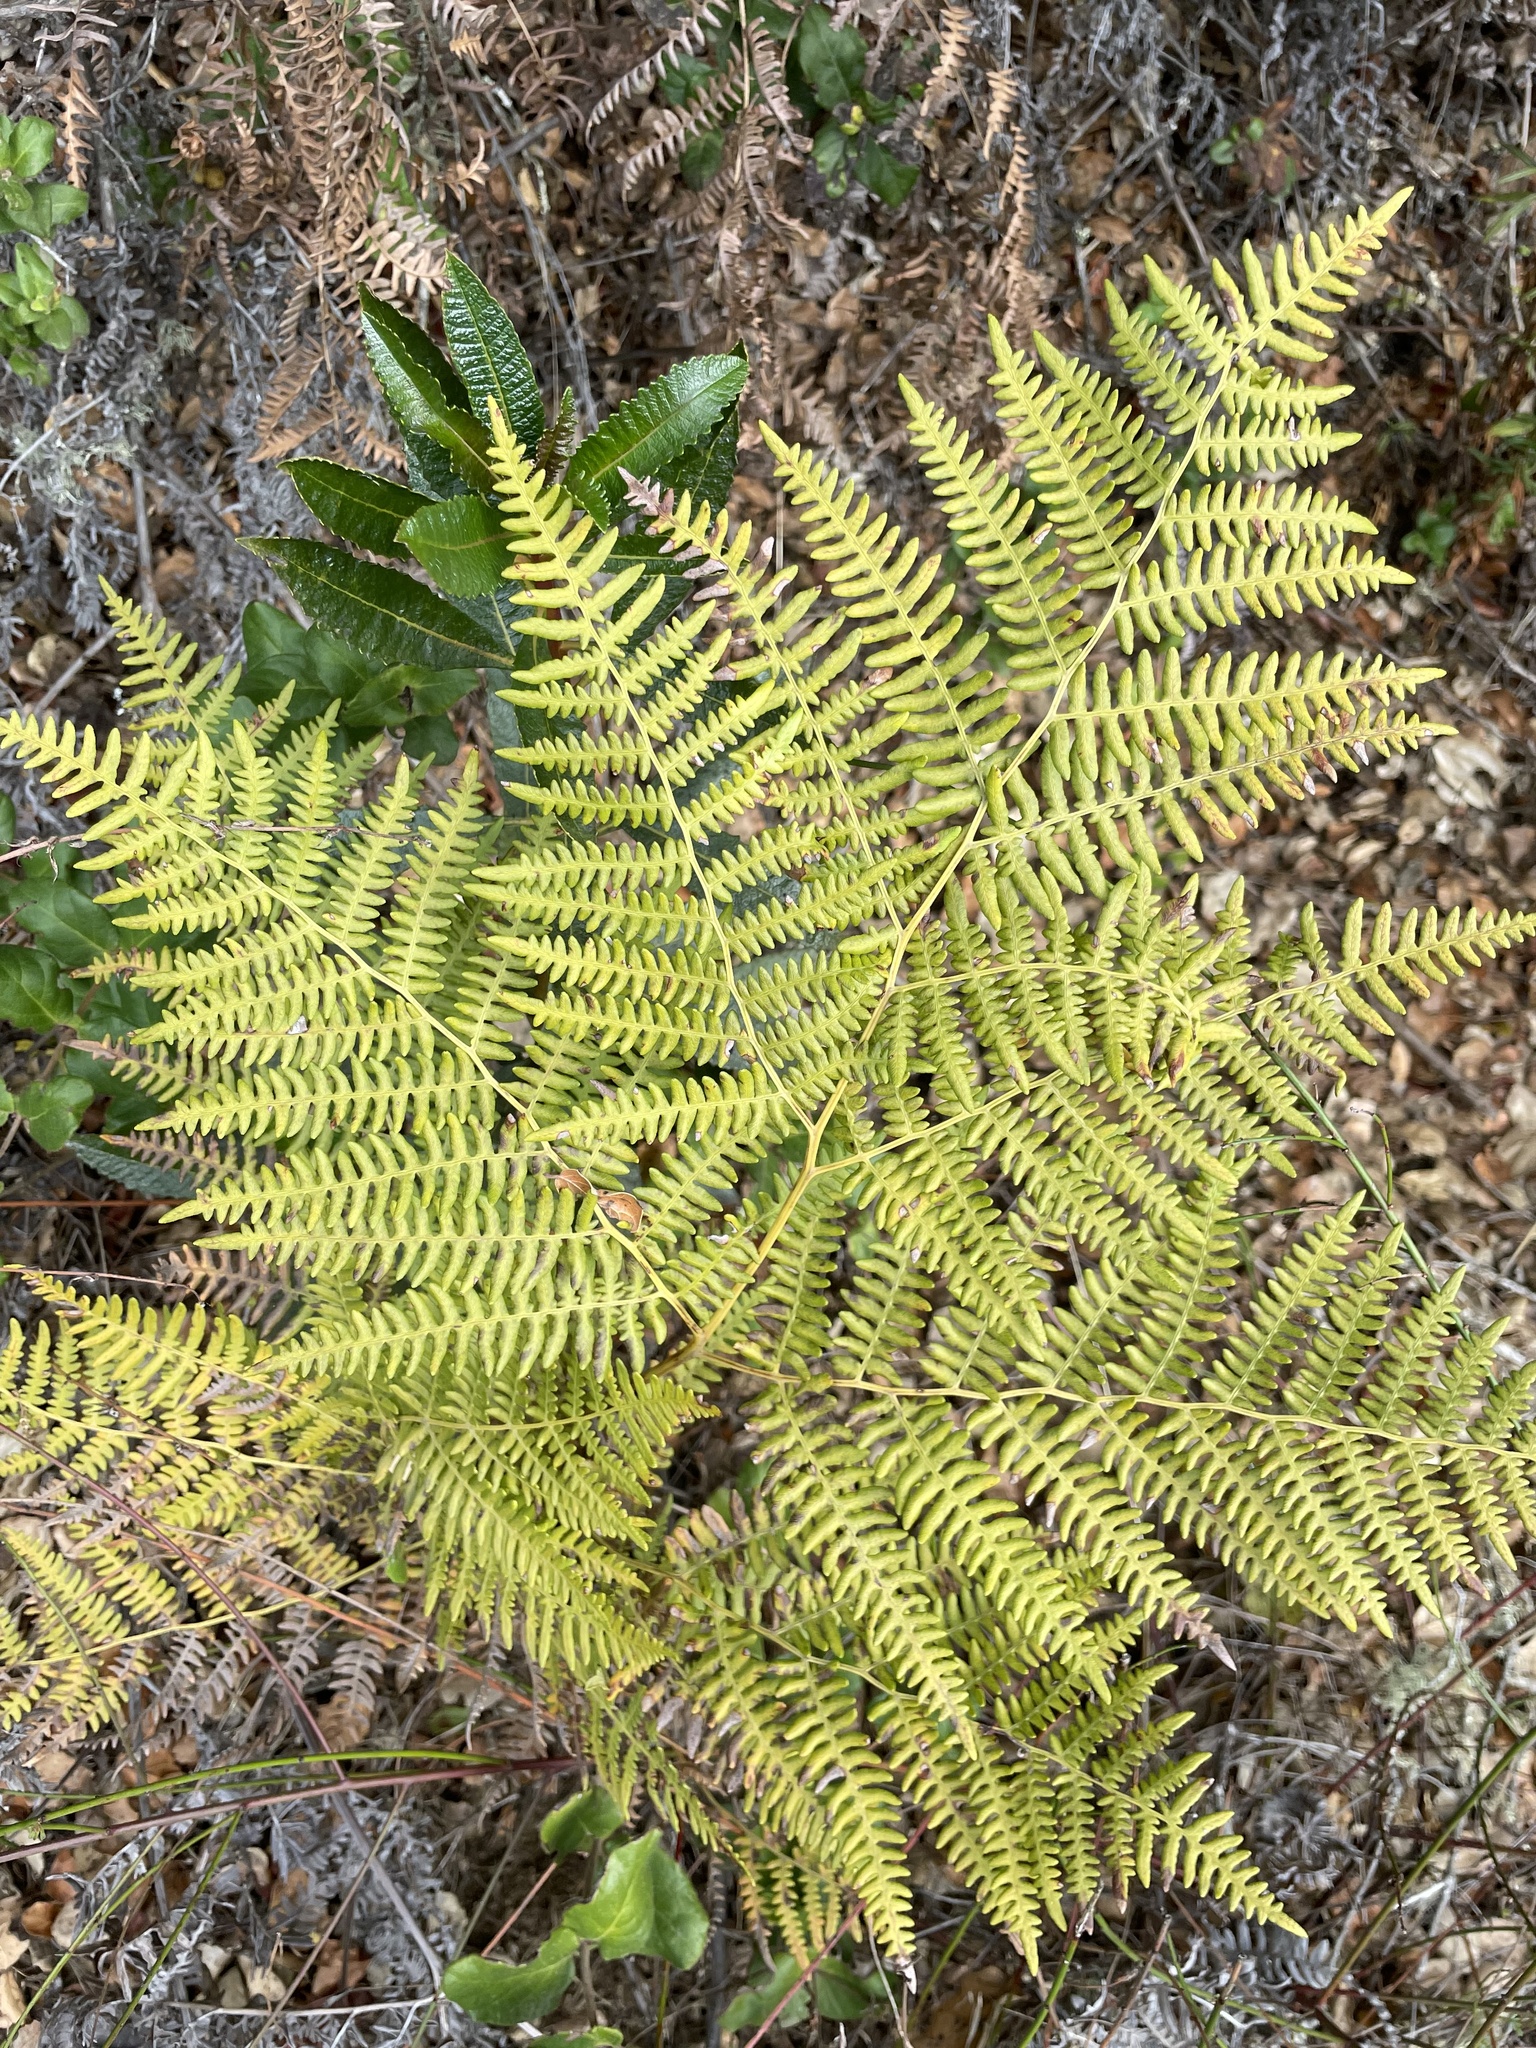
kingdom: Plantae
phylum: Tracheophyta
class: Polypodiopsida
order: Polypodiales
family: Dennstaedtiaceae
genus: Pteridium
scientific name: Pteridium aquilinum
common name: Bracken
